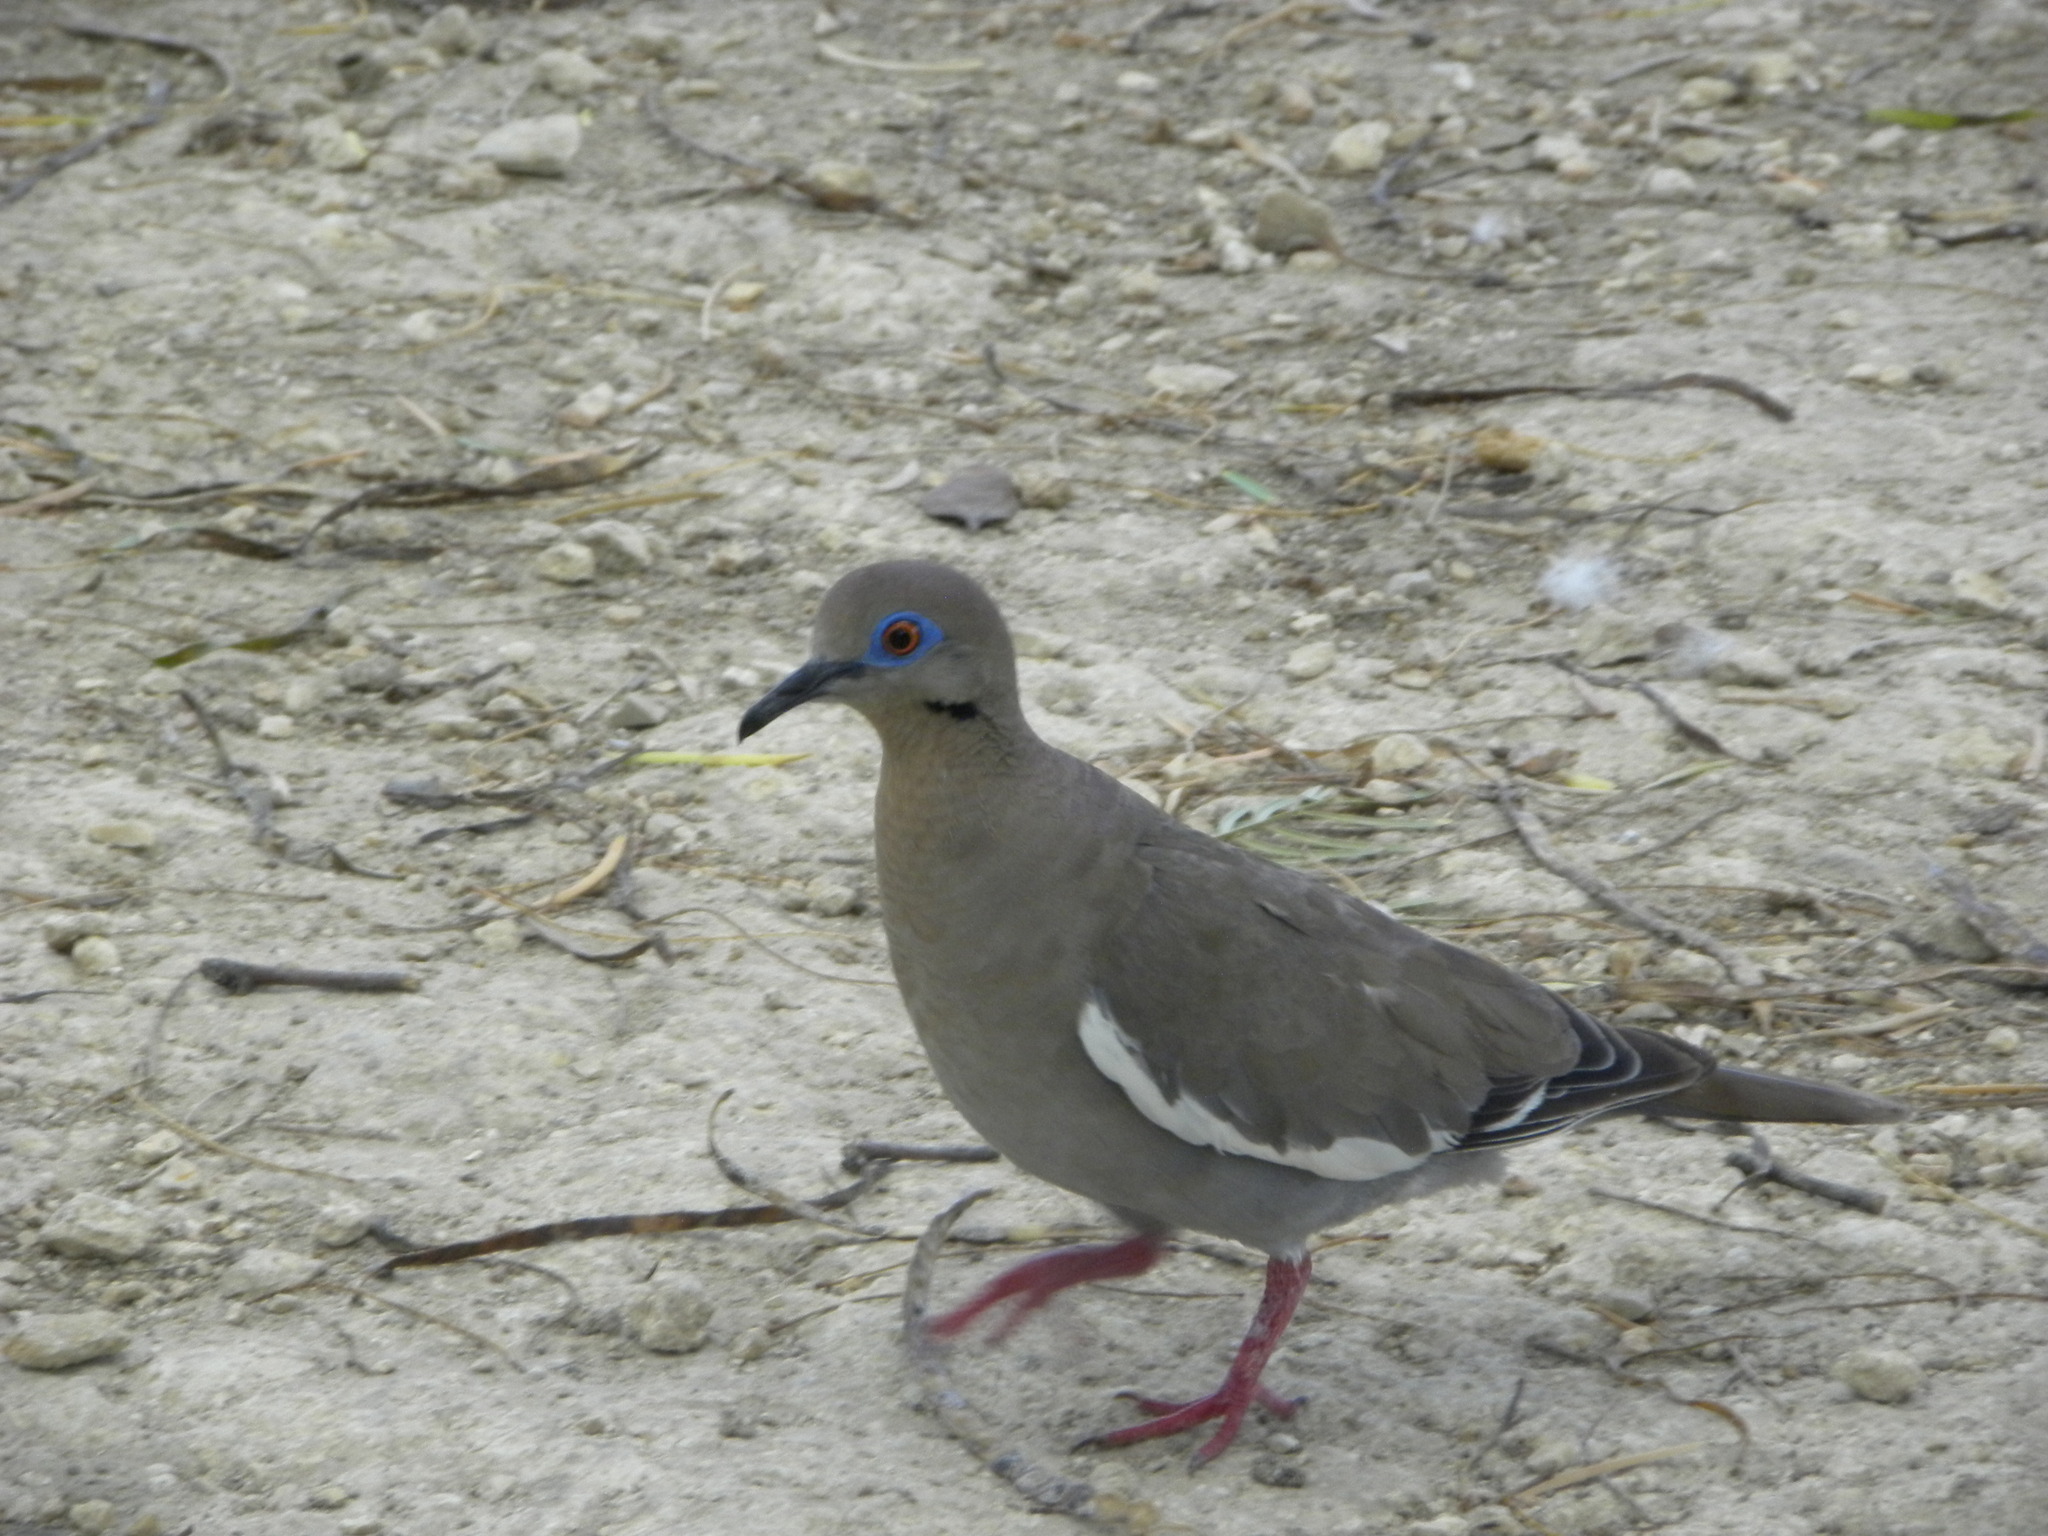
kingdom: Animalia
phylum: Chordata
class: Aves
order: Columbiformes
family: Columbidae
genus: Zenaida
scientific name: Zenaida asiatica
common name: White-winged dove
